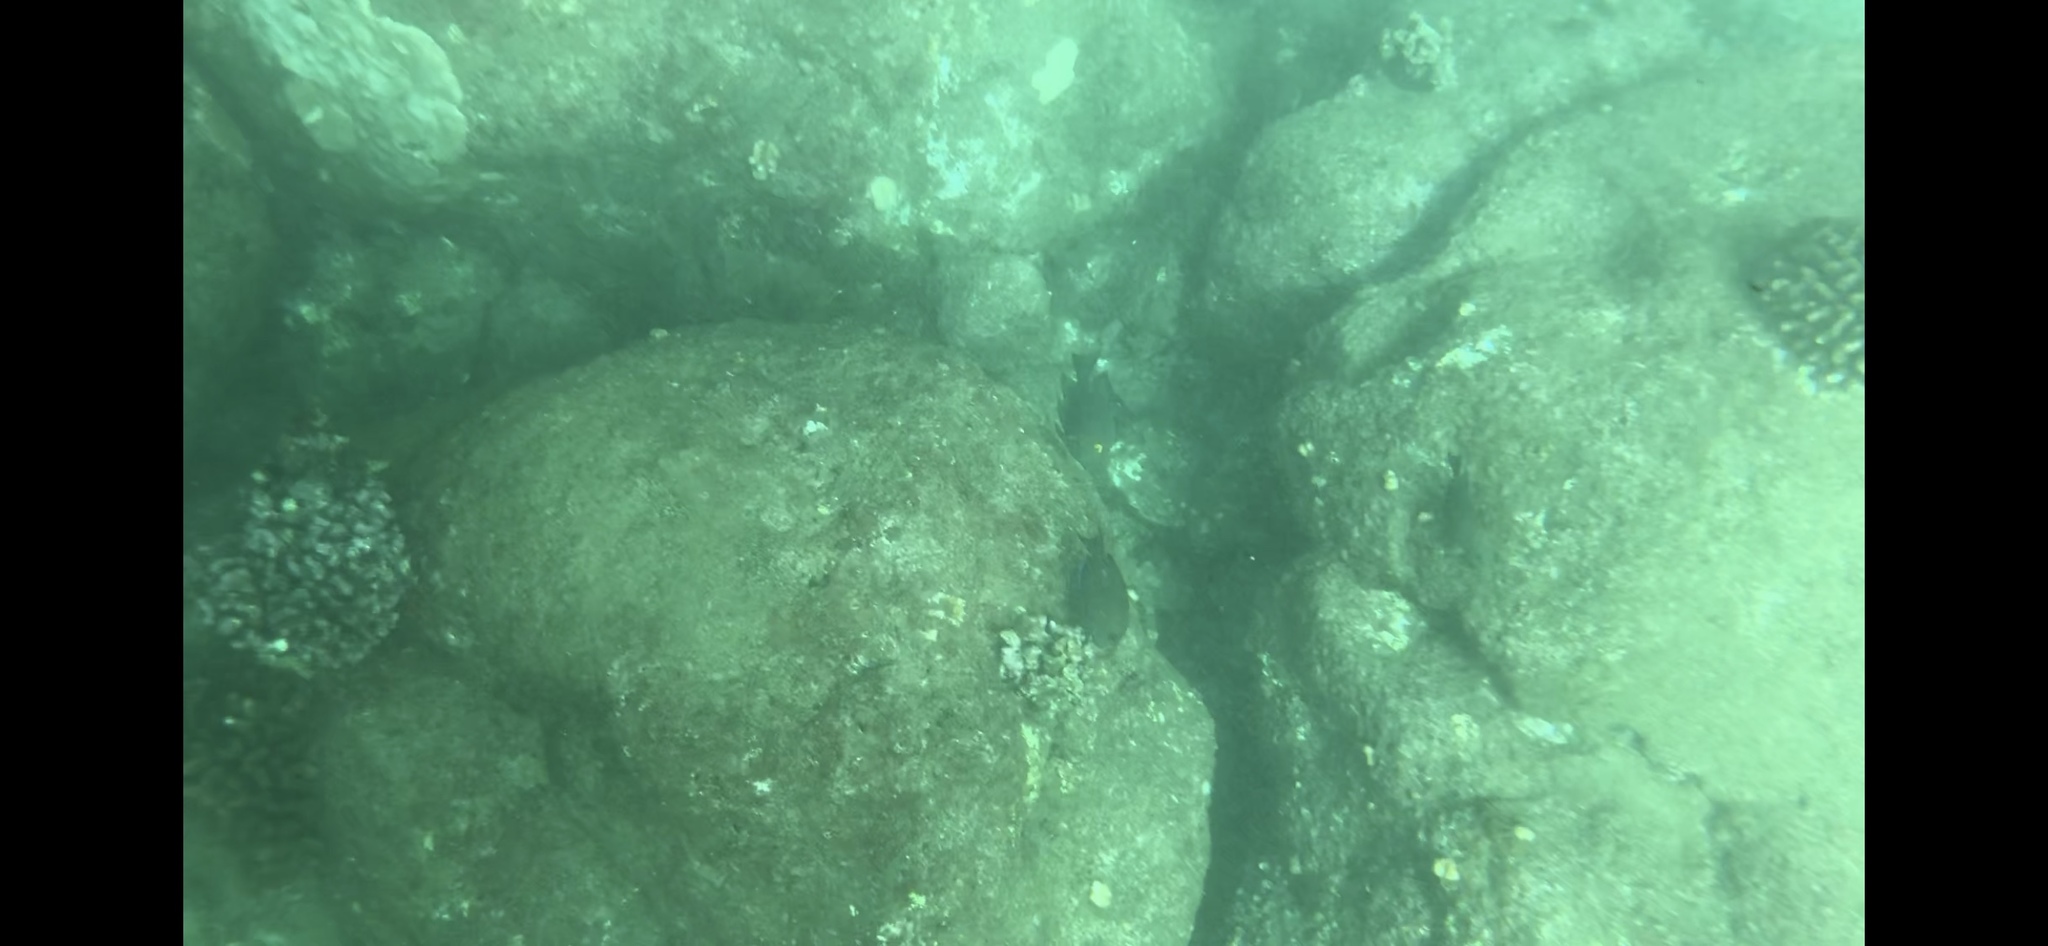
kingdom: Animalia
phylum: Chordata
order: Perciformes
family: Acanthuridae
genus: Ctenochaetus
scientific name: Ctenochaetus strigosus
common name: Bristletoothed surgeonfish
